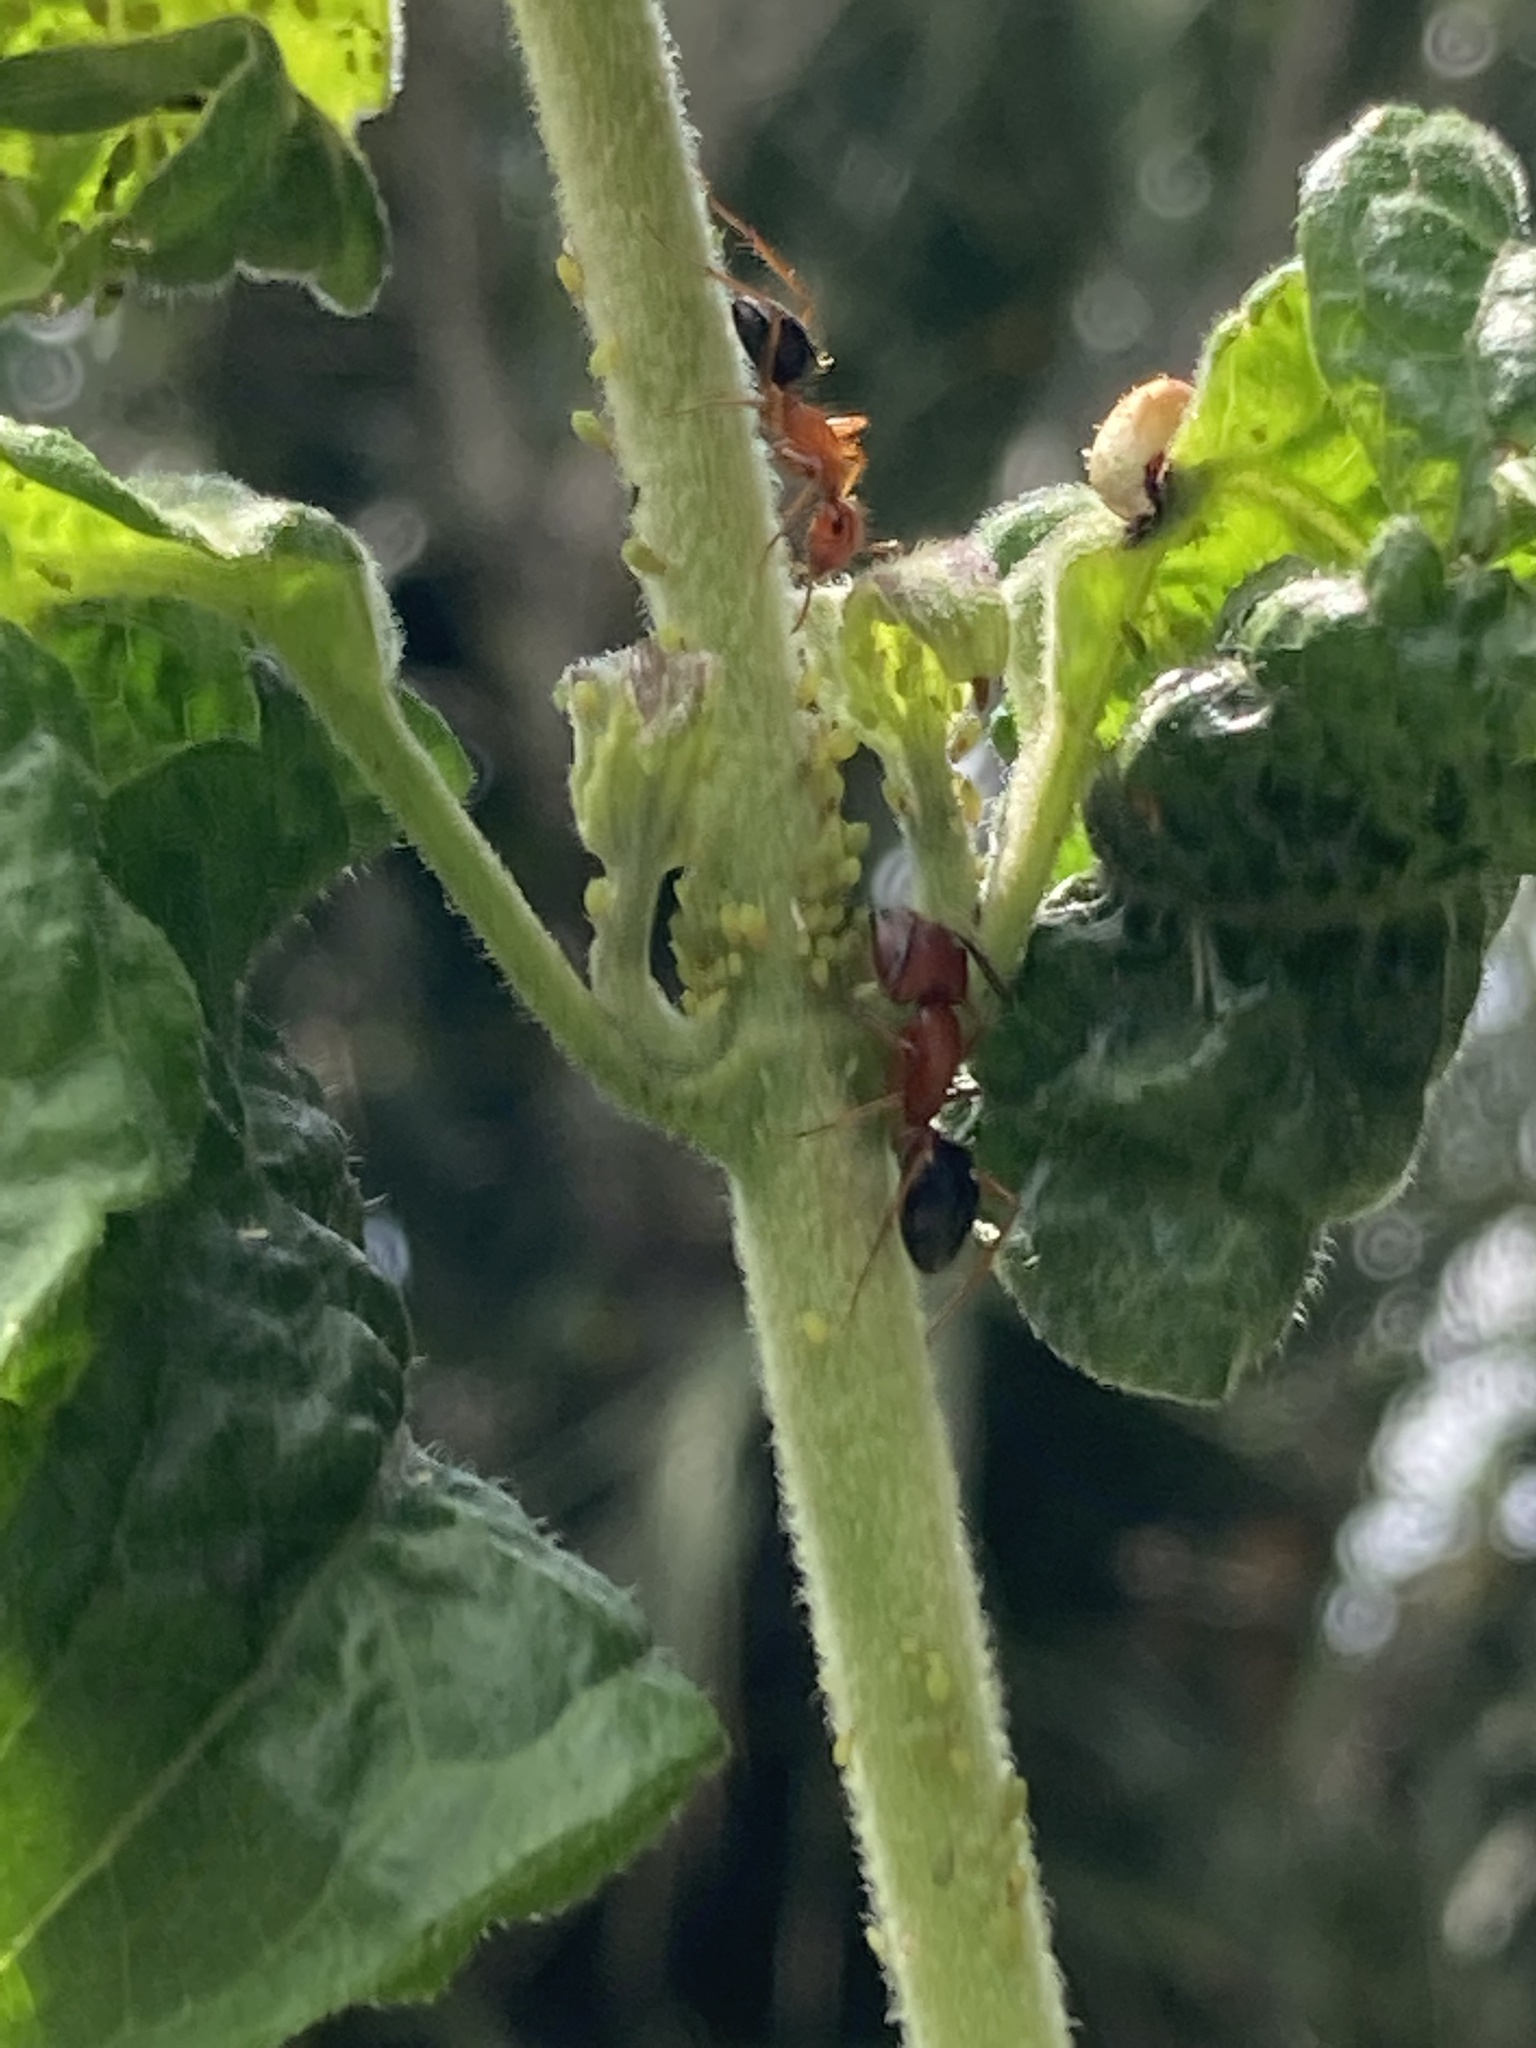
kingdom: Animalia
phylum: Arthropoda
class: Insecta
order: Hymenoptera
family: Formicidae
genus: Camponotus
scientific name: Camponotus floridanus
